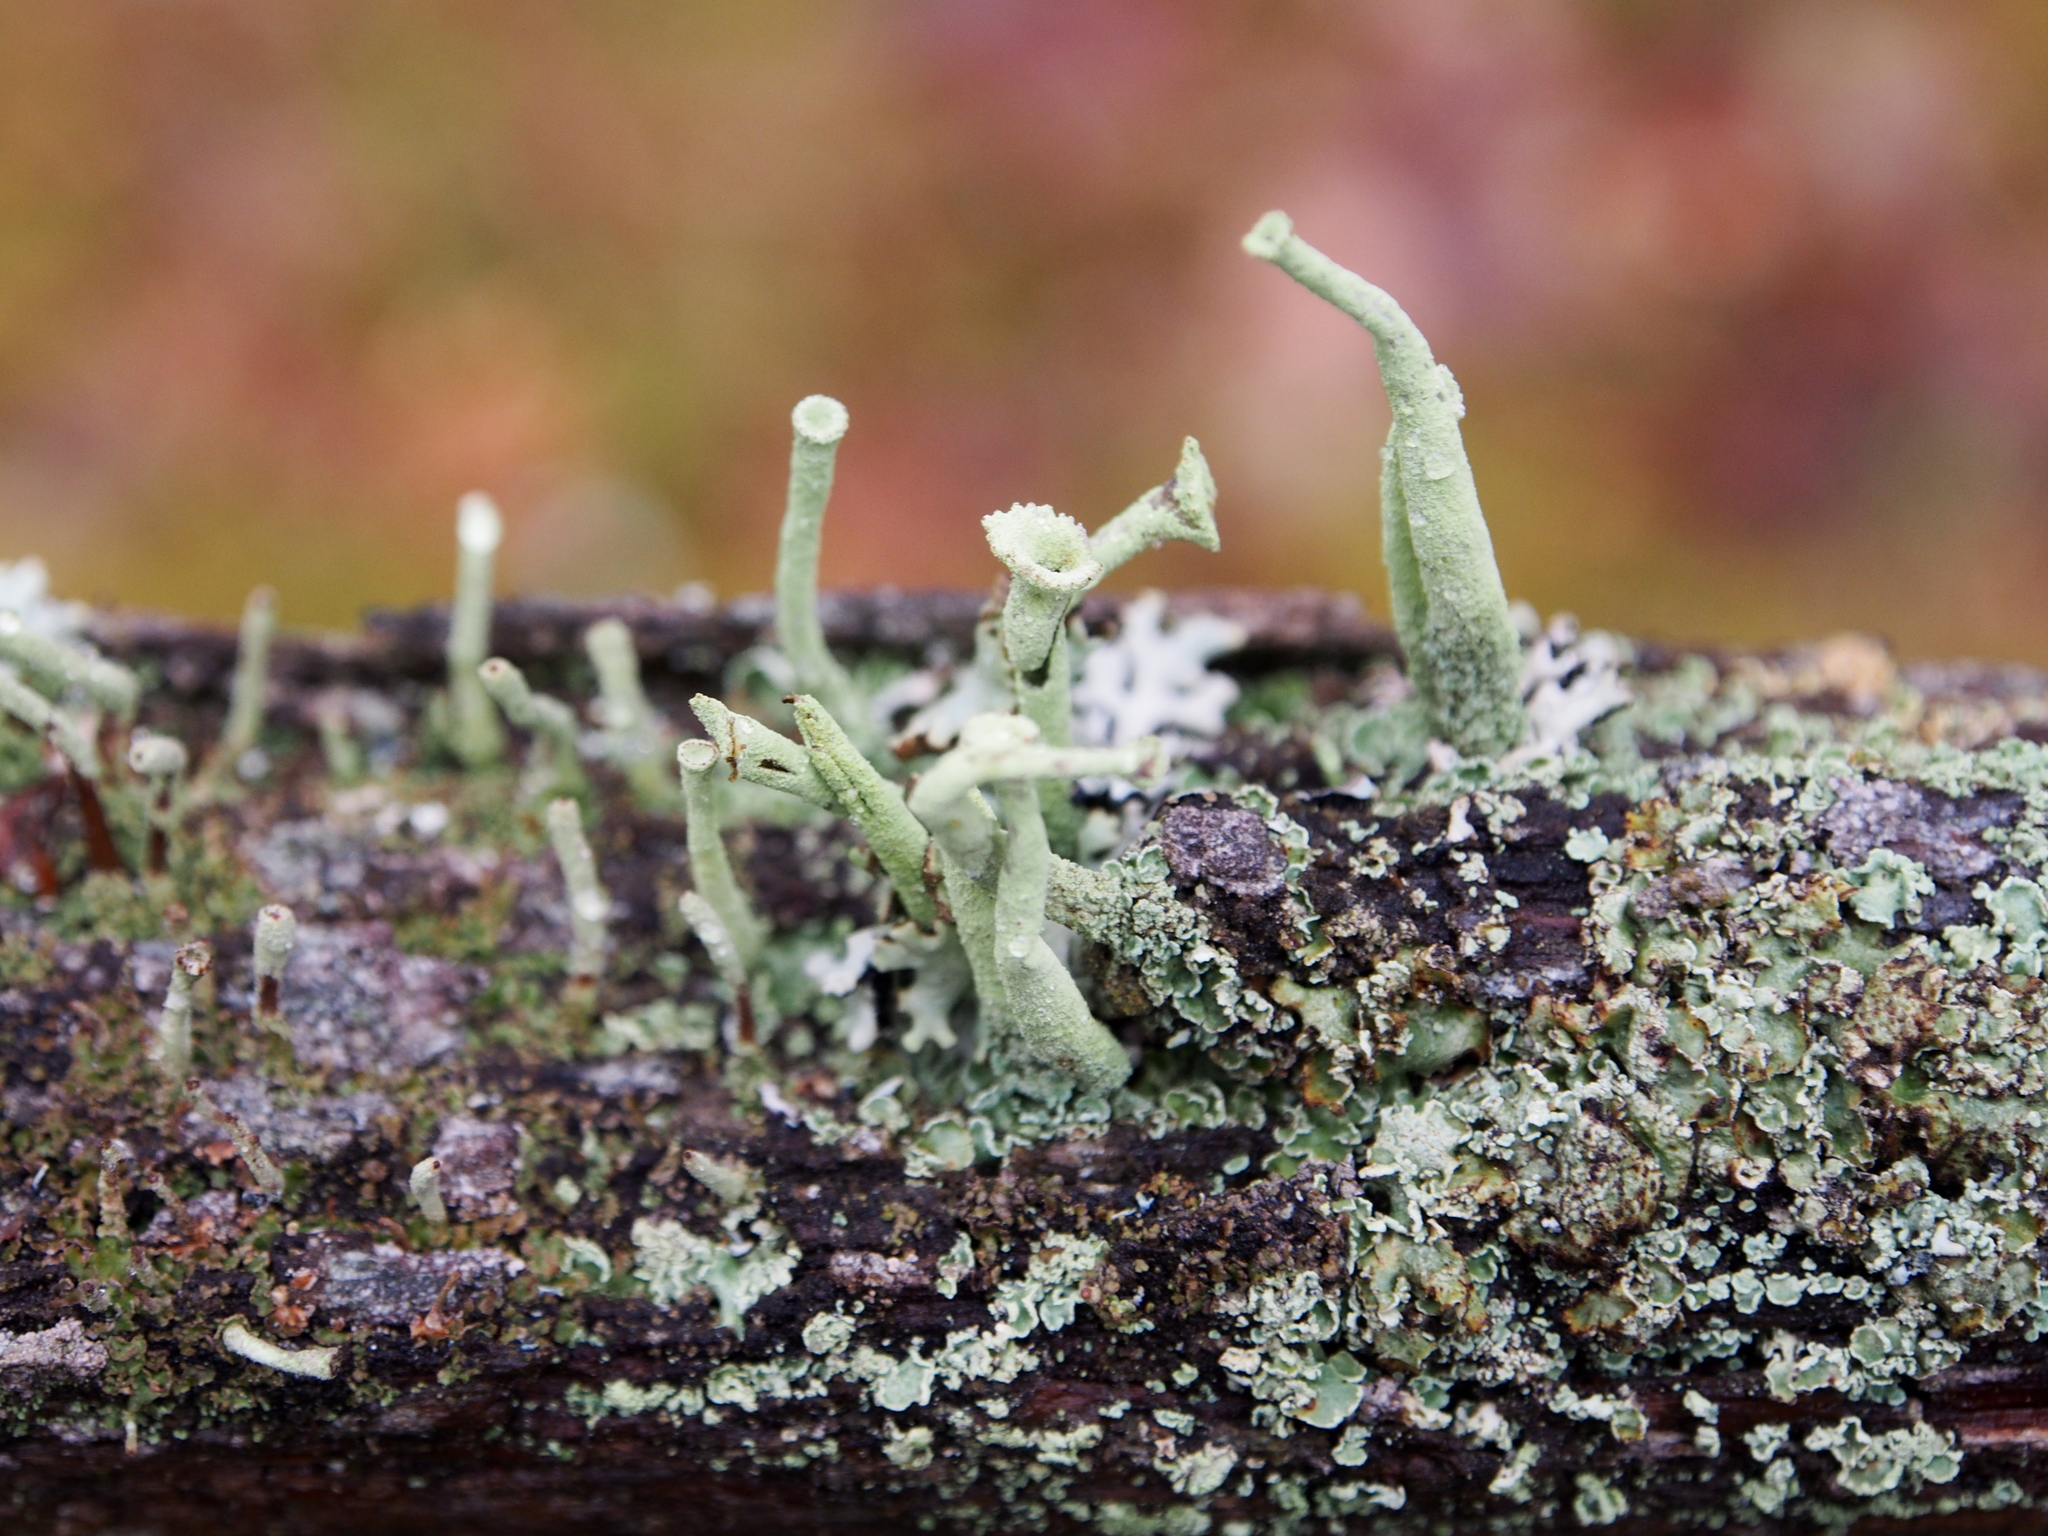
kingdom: Fungi
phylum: Ascomycota
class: Lecanoromycetes
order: Lecanorales
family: Cladoniaceae
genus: Cladonia
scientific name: Cladonia deformis
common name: Lesser sulphur-cup lichen
